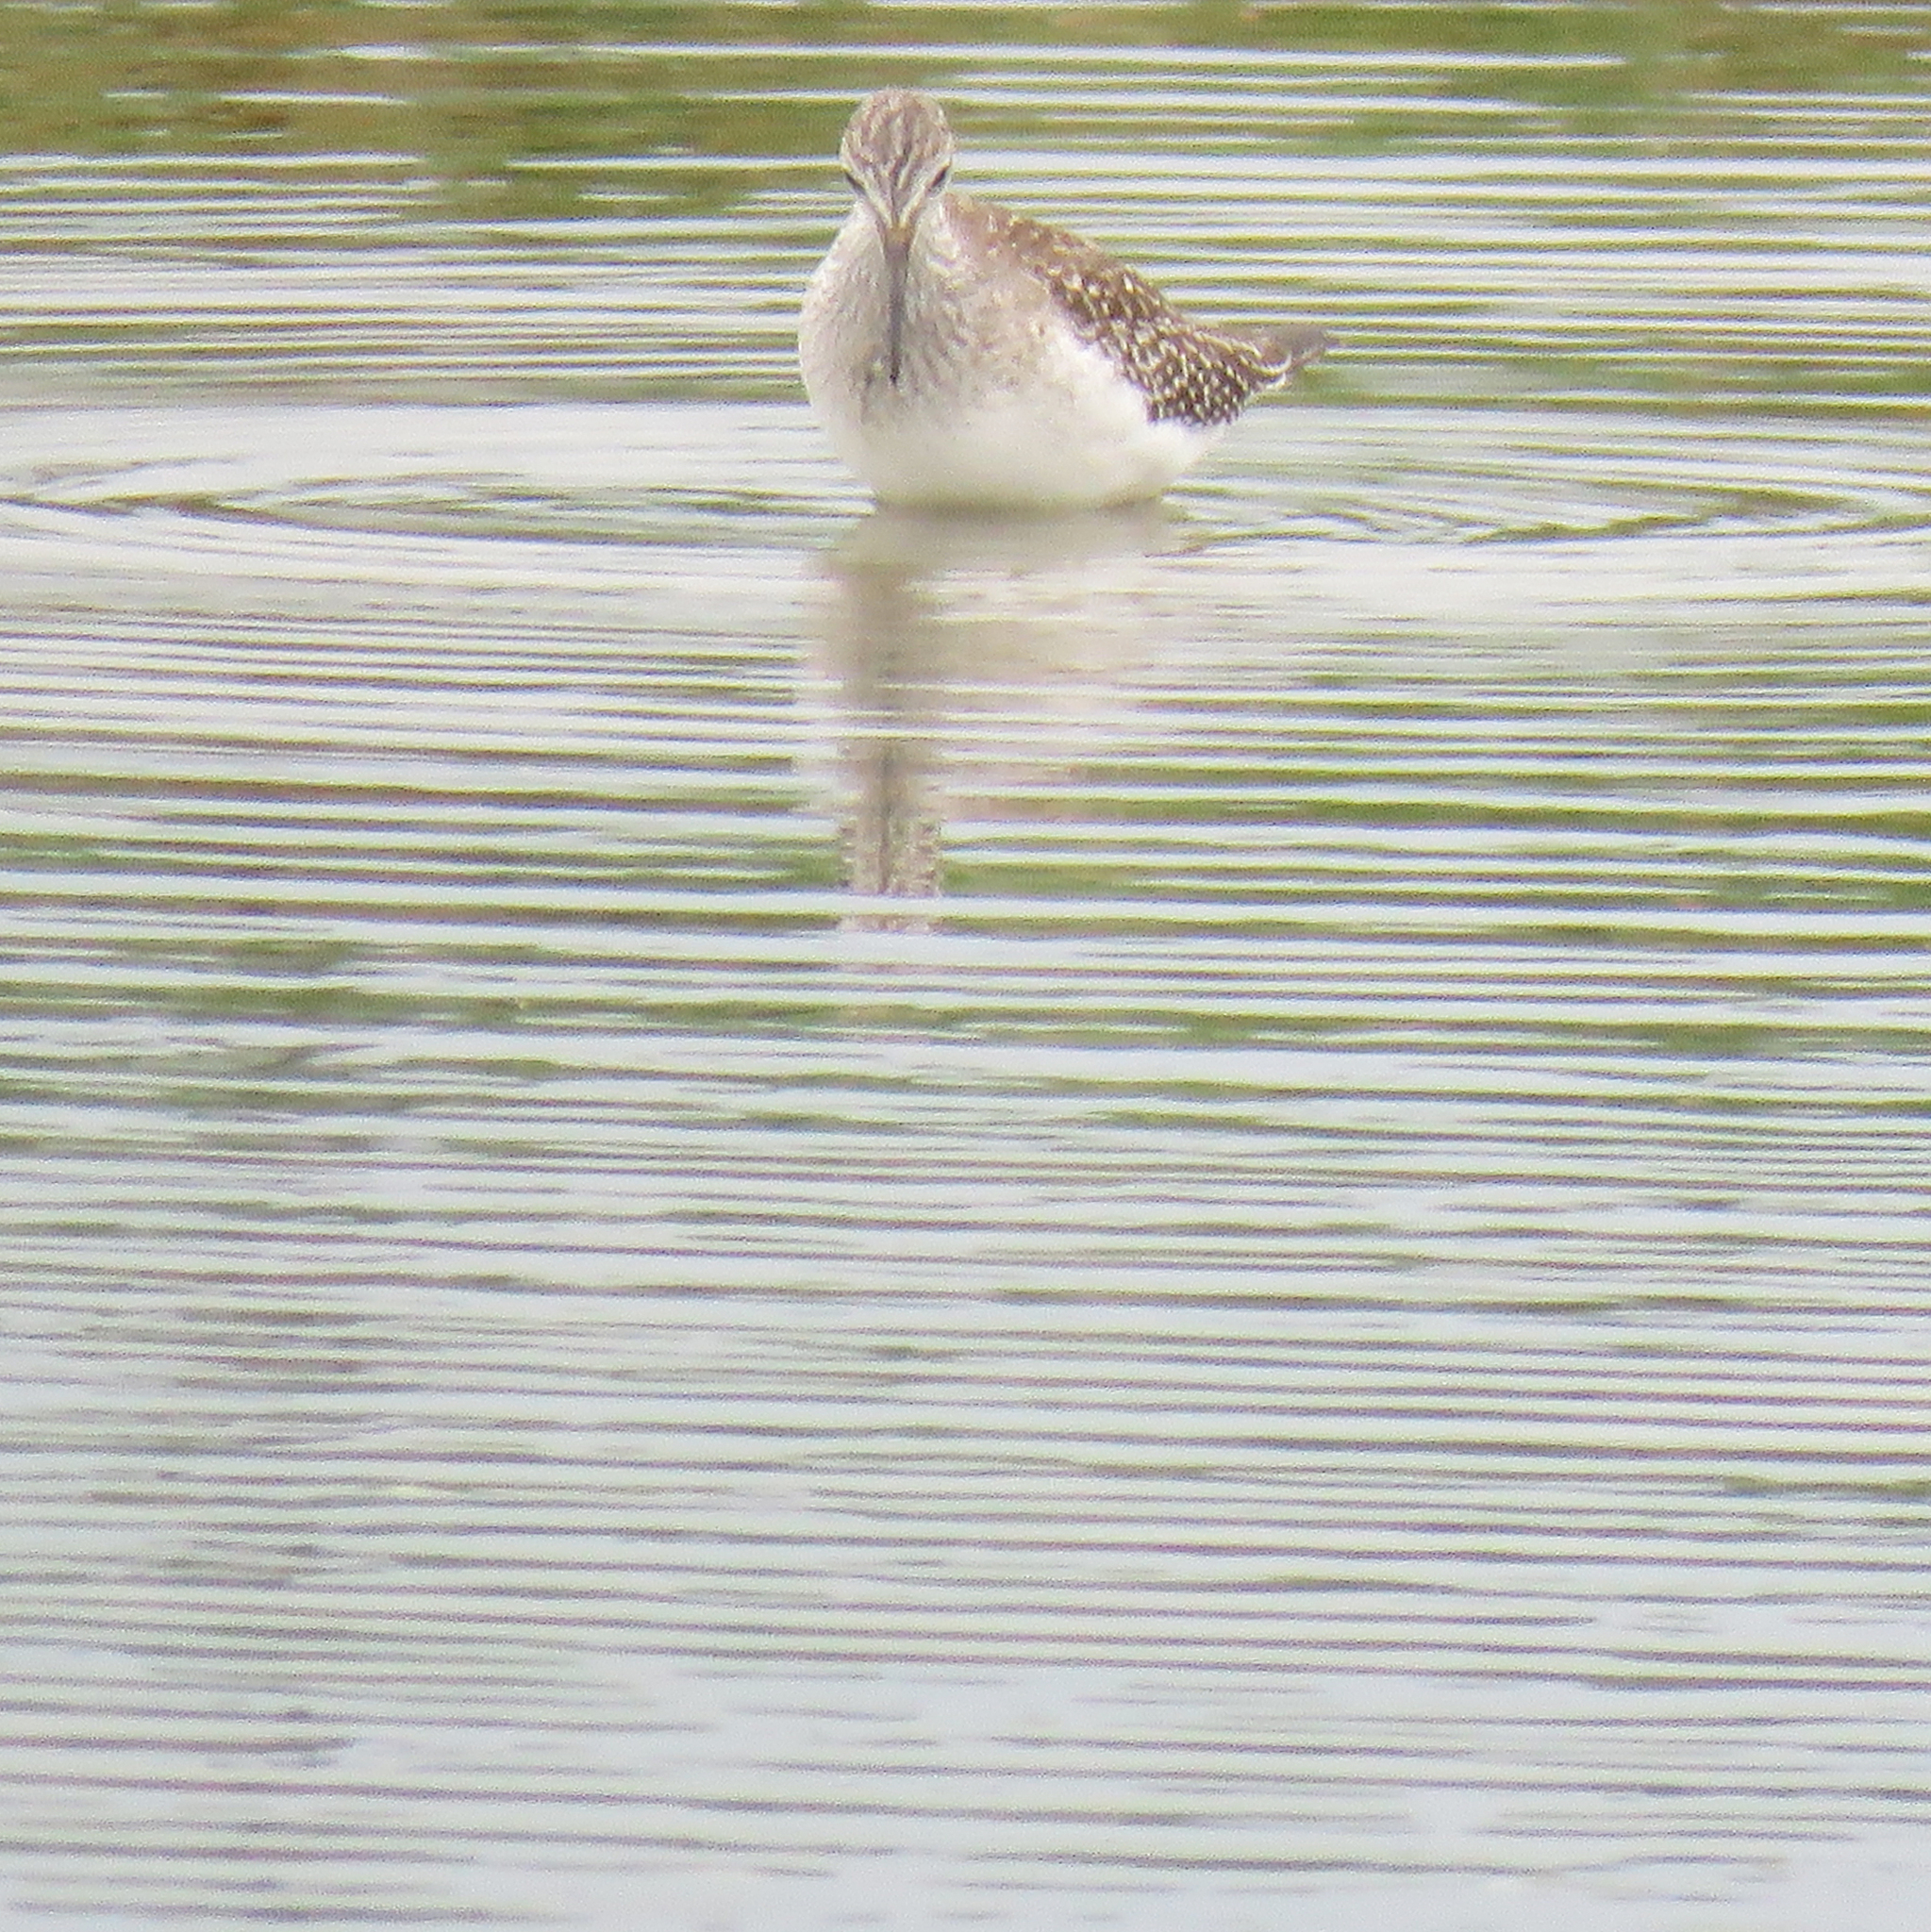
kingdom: Animalia
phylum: Chordata
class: Aves
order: Charadriiformes
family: Scolopacidae
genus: Tringa
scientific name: Tringa flavipes
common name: Lesser yellowlegs
